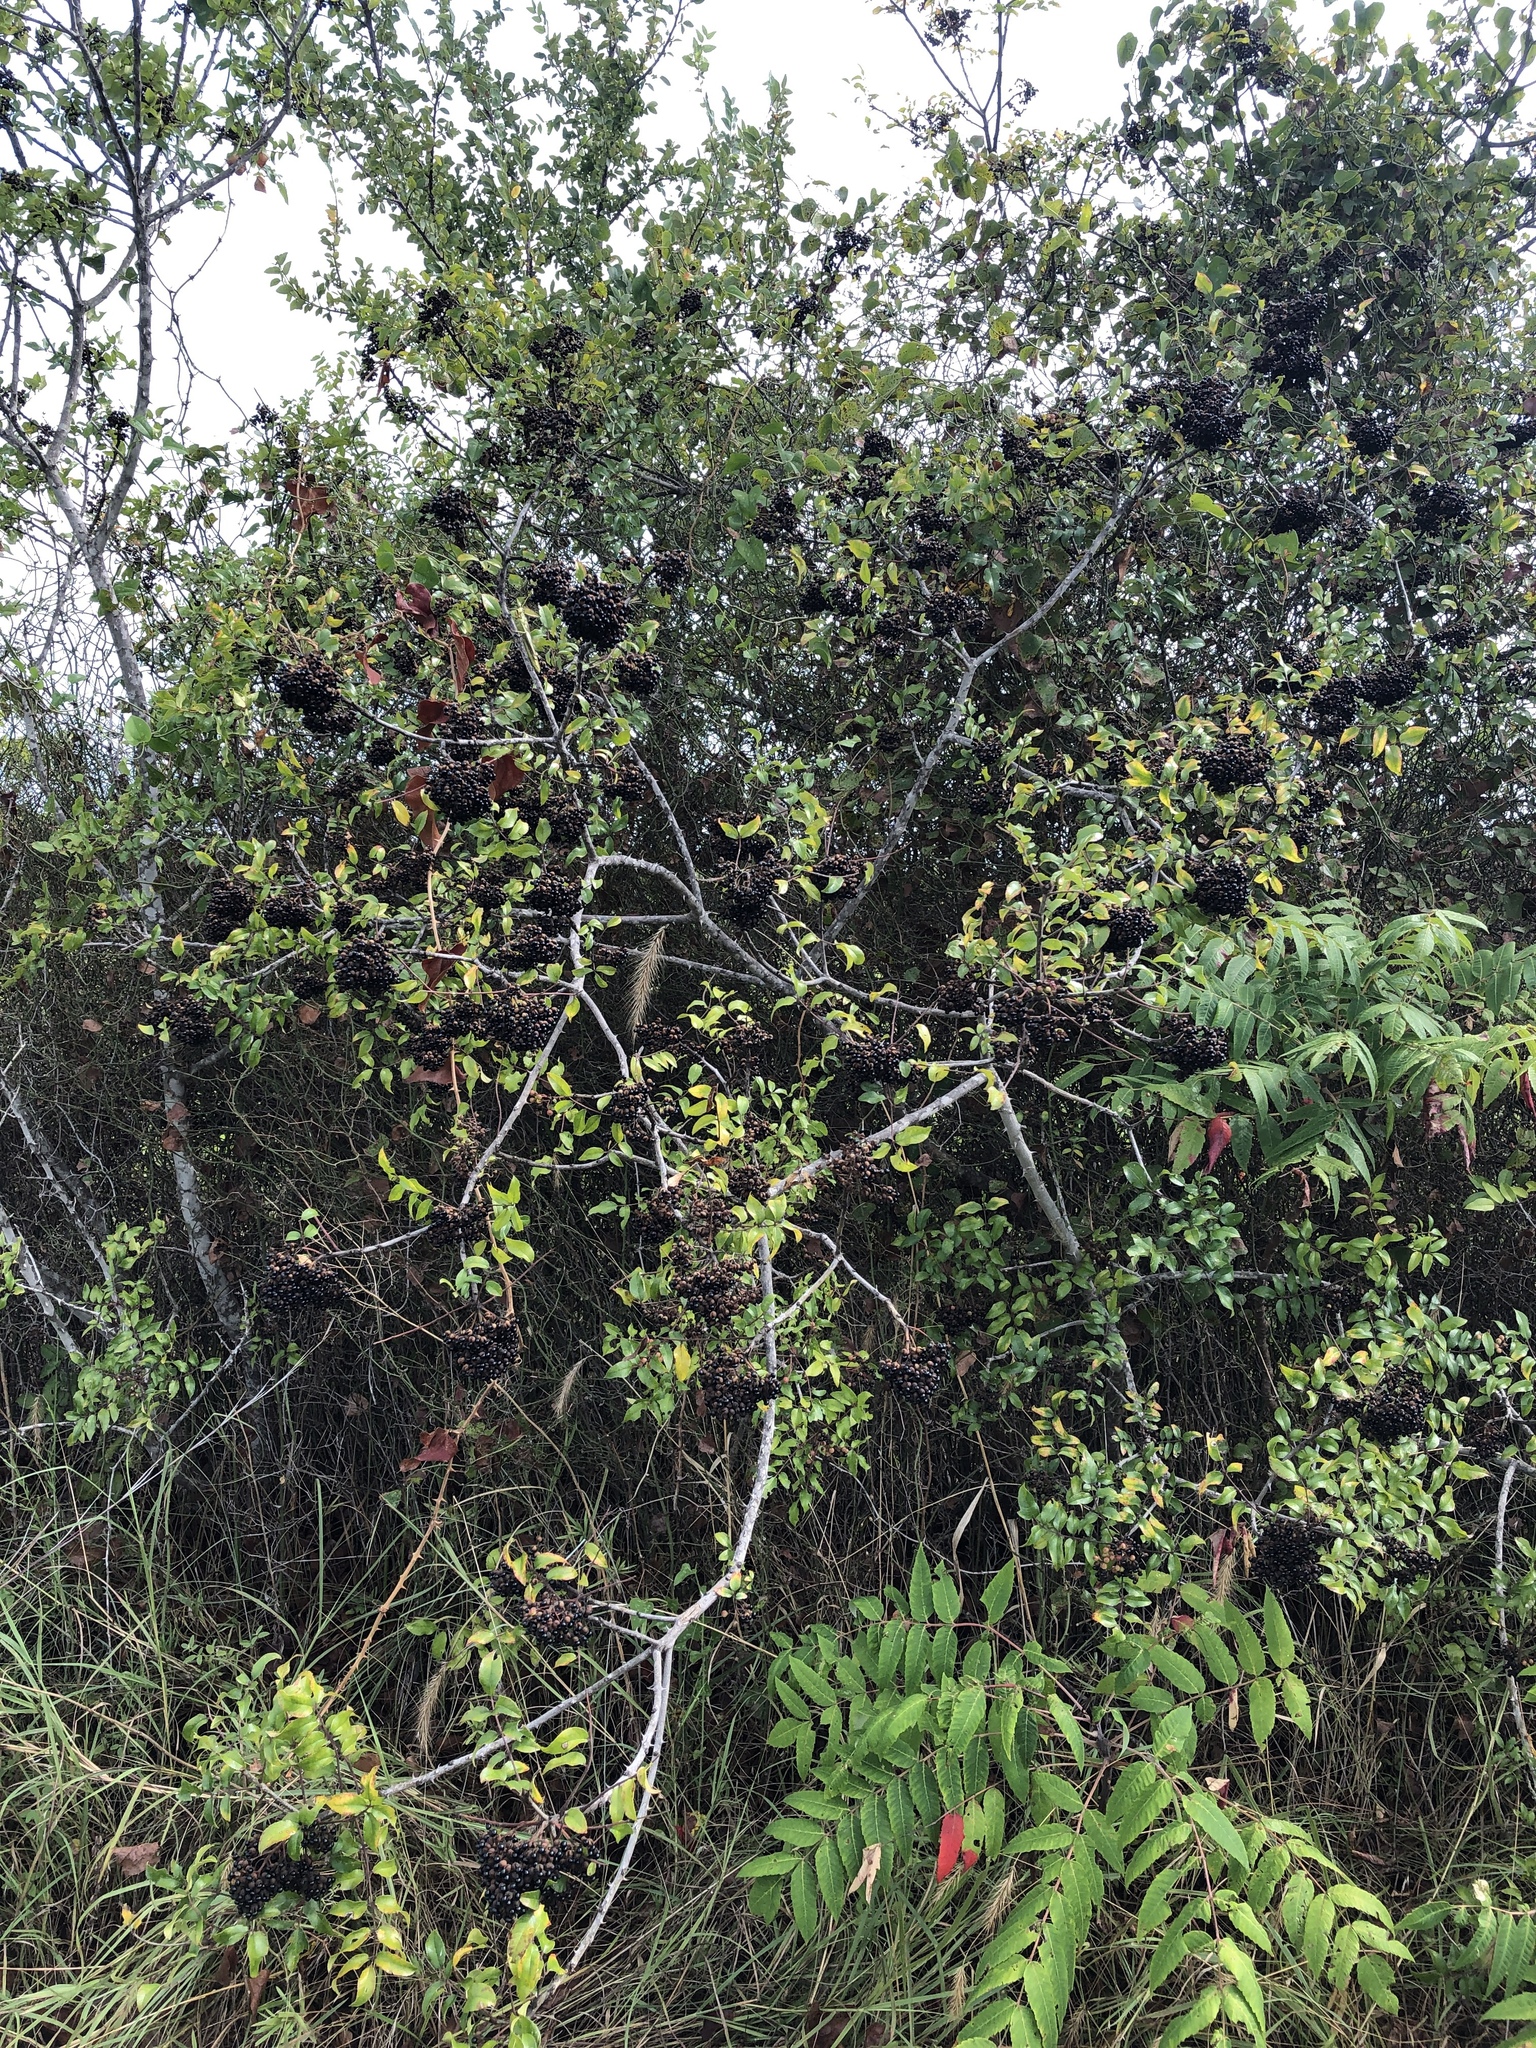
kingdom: Plantae
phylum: Tracheophyta
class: Magnoliopsida
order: Sapindales
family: Rutaceae
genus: Zanthoxylum
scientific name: Zanthoxylum clava-herculis
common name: Hercules'-club
